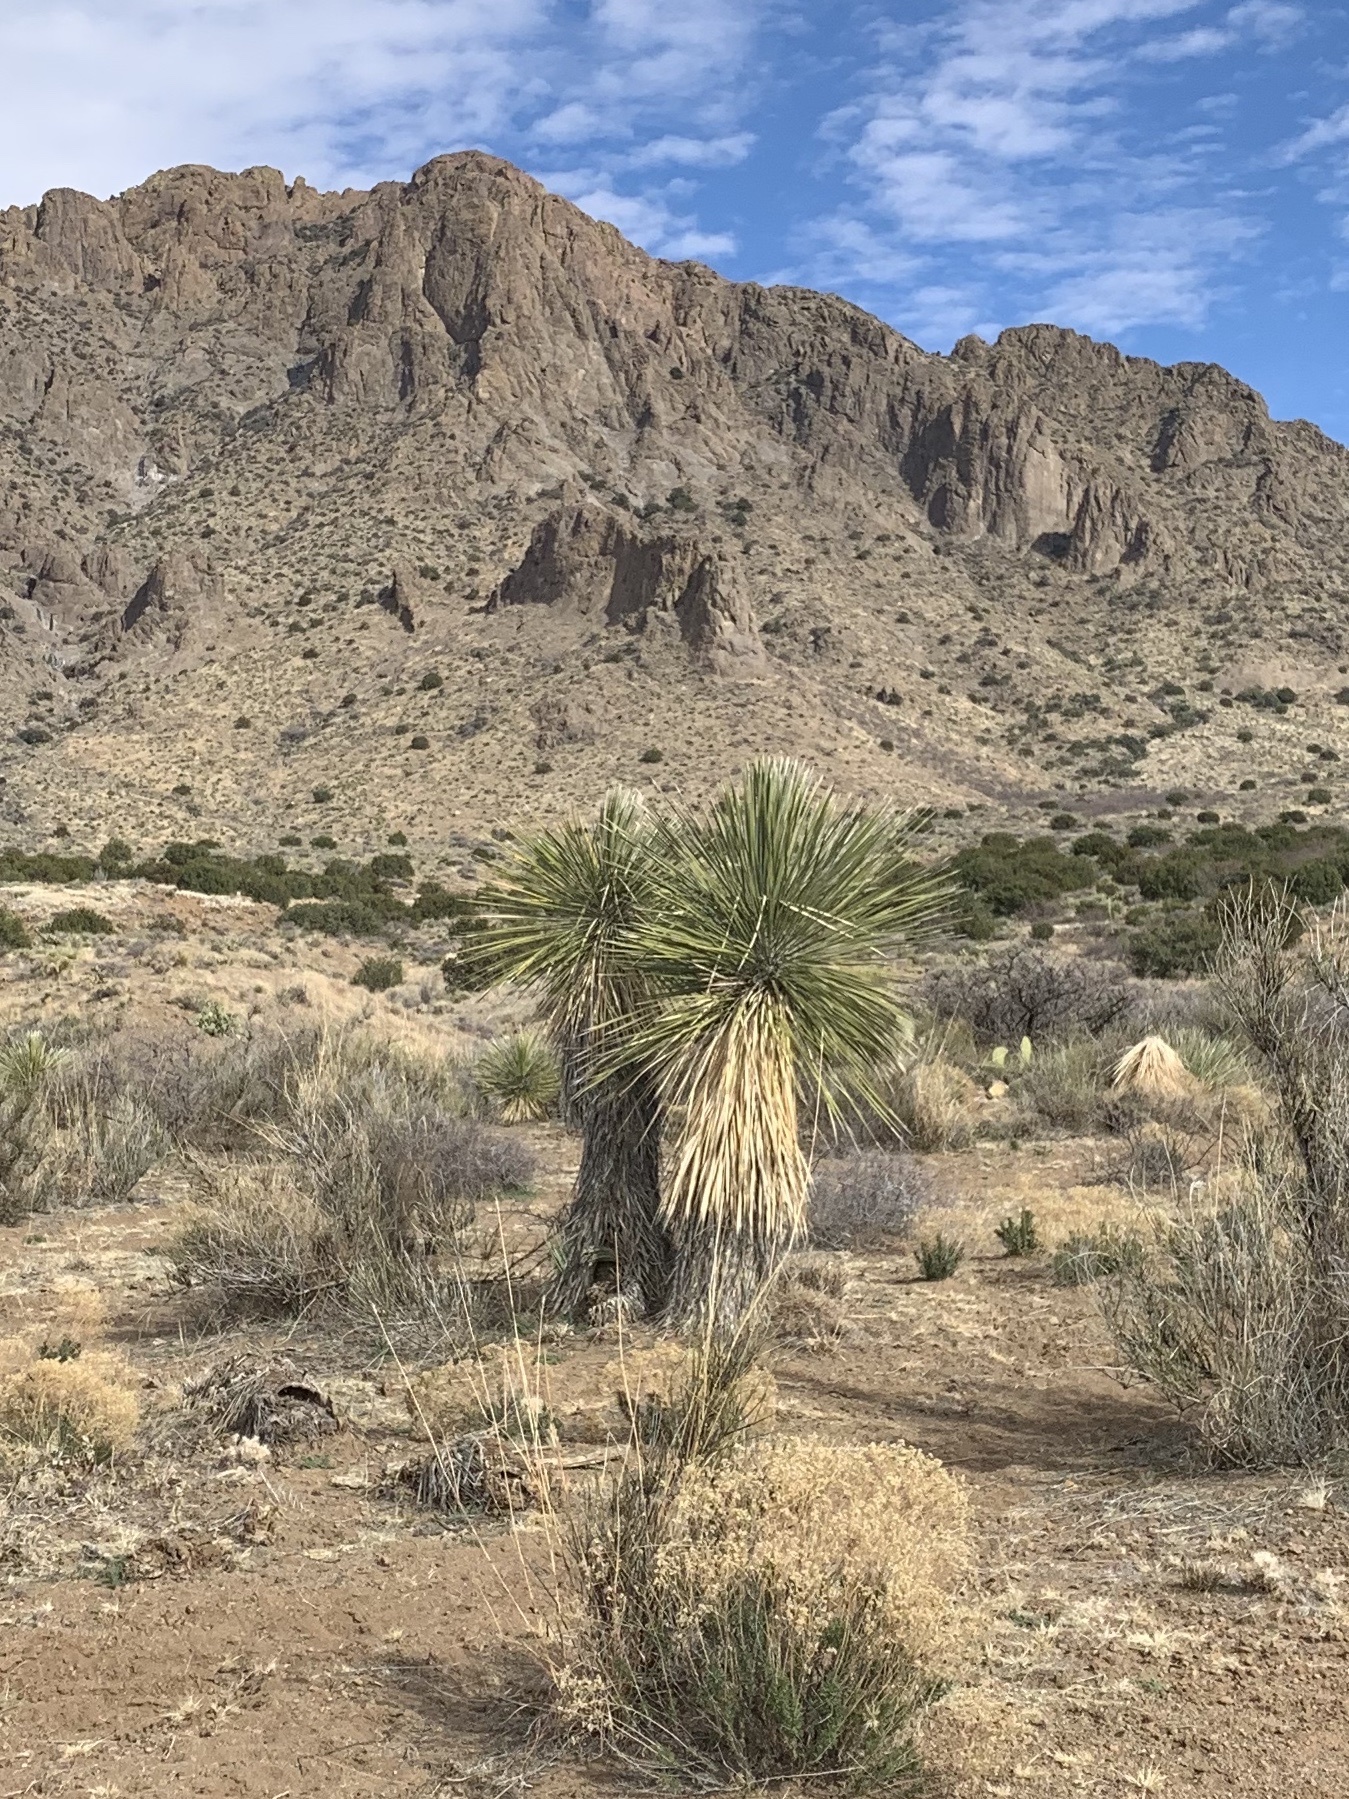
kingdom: Plantae
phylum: Tracheophyta
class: Liliopsida
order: Asparagales
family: Asparagaceae
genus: Yucca
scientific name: Yucca elata
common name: Palmella
